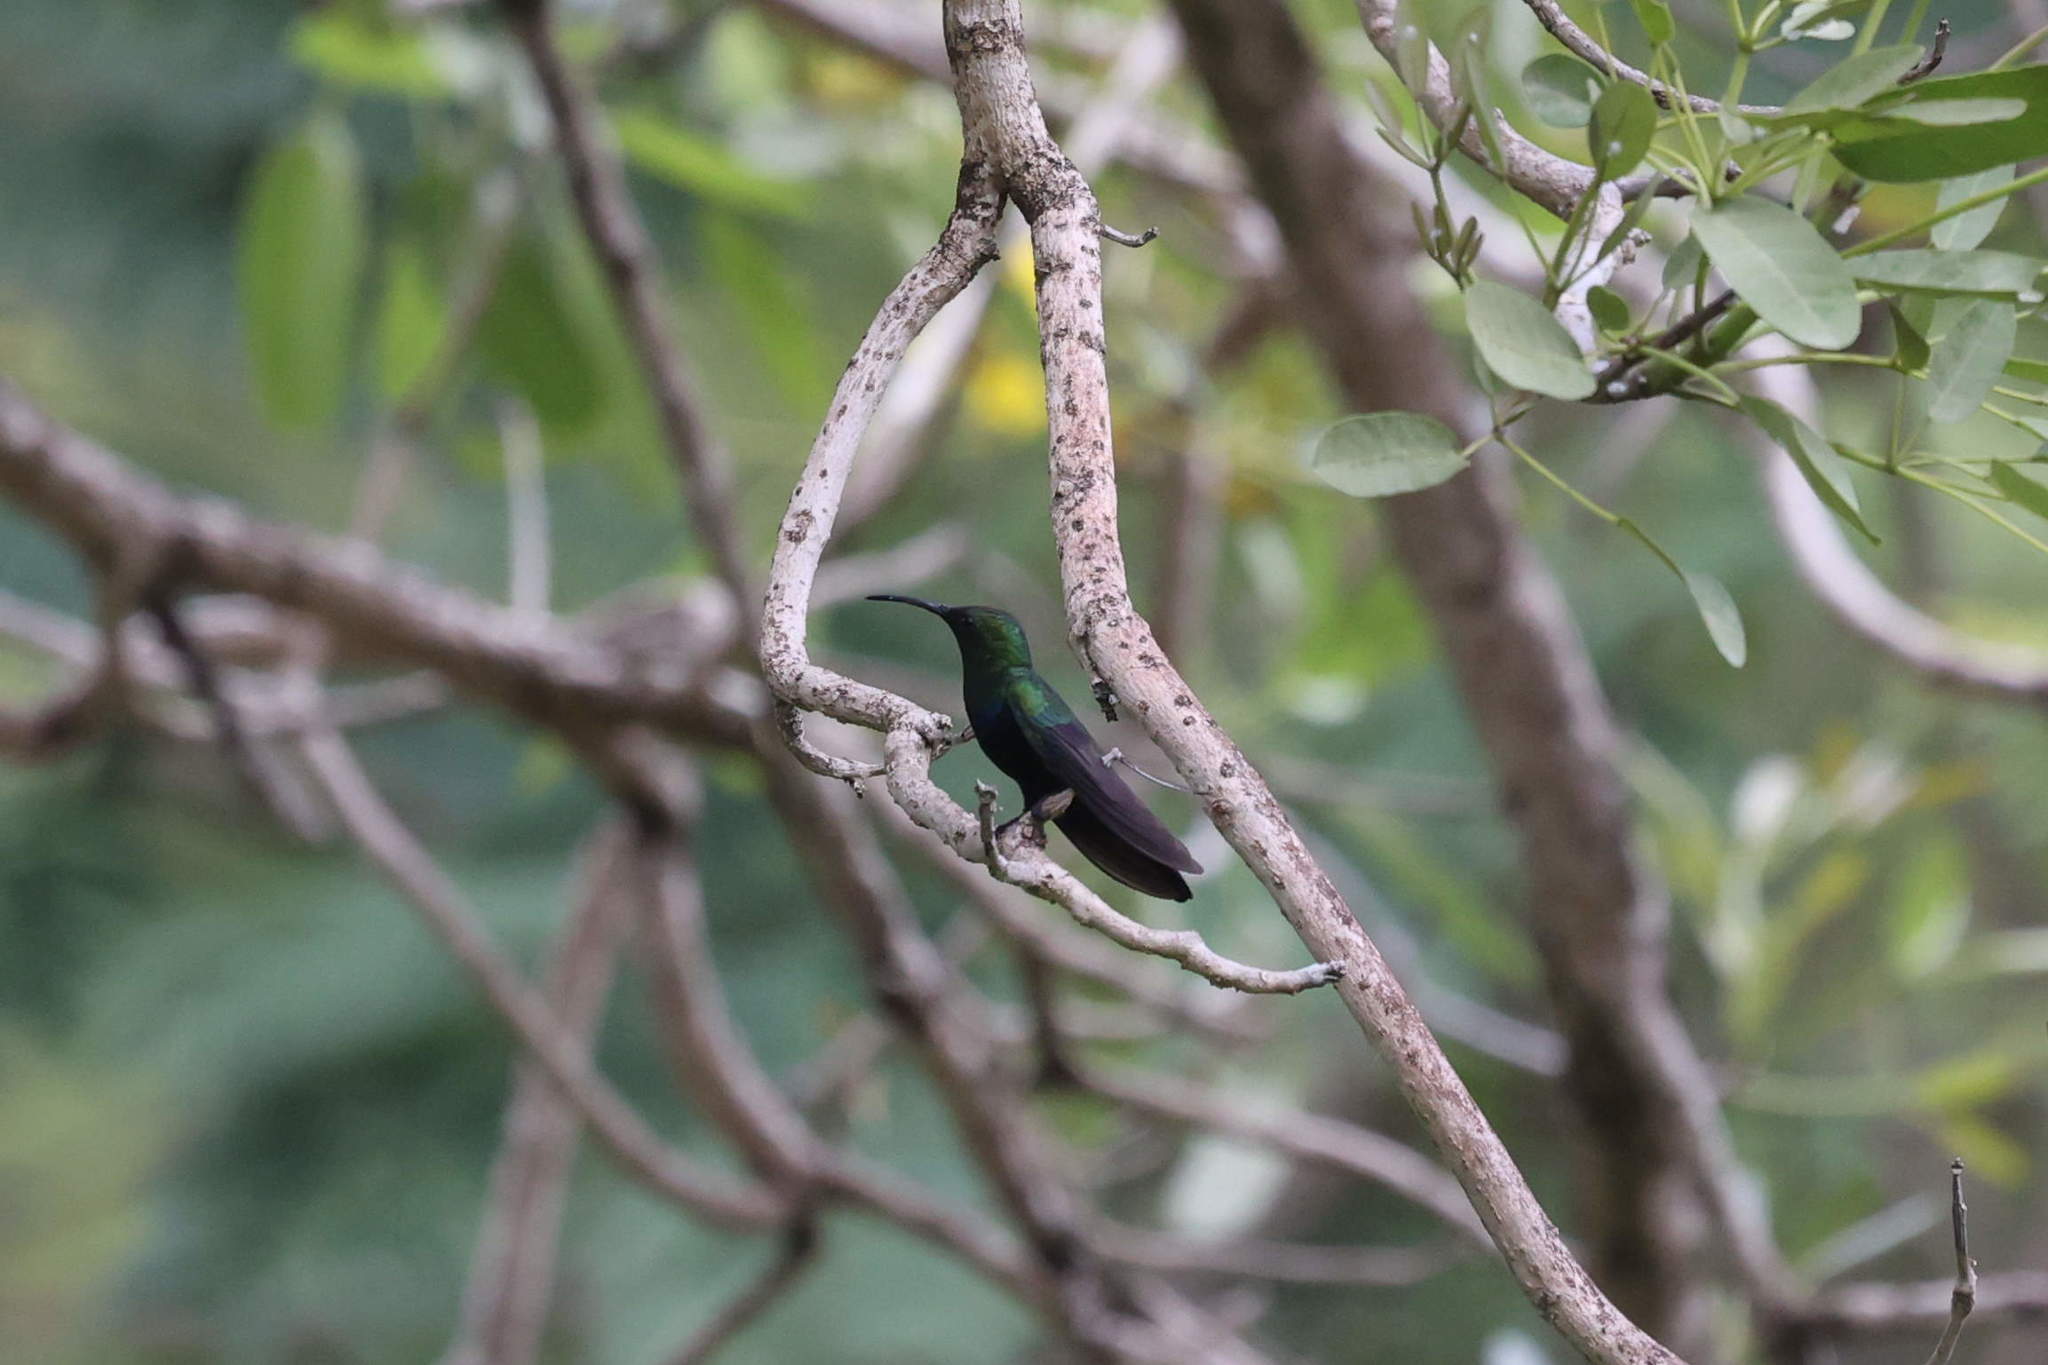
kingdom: Animalia
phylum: Chordata
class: Aves
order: Apodiformes
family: Trochilidae
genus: Eulampis
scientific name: Eulampis holosericeus
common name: Green-throated carib
